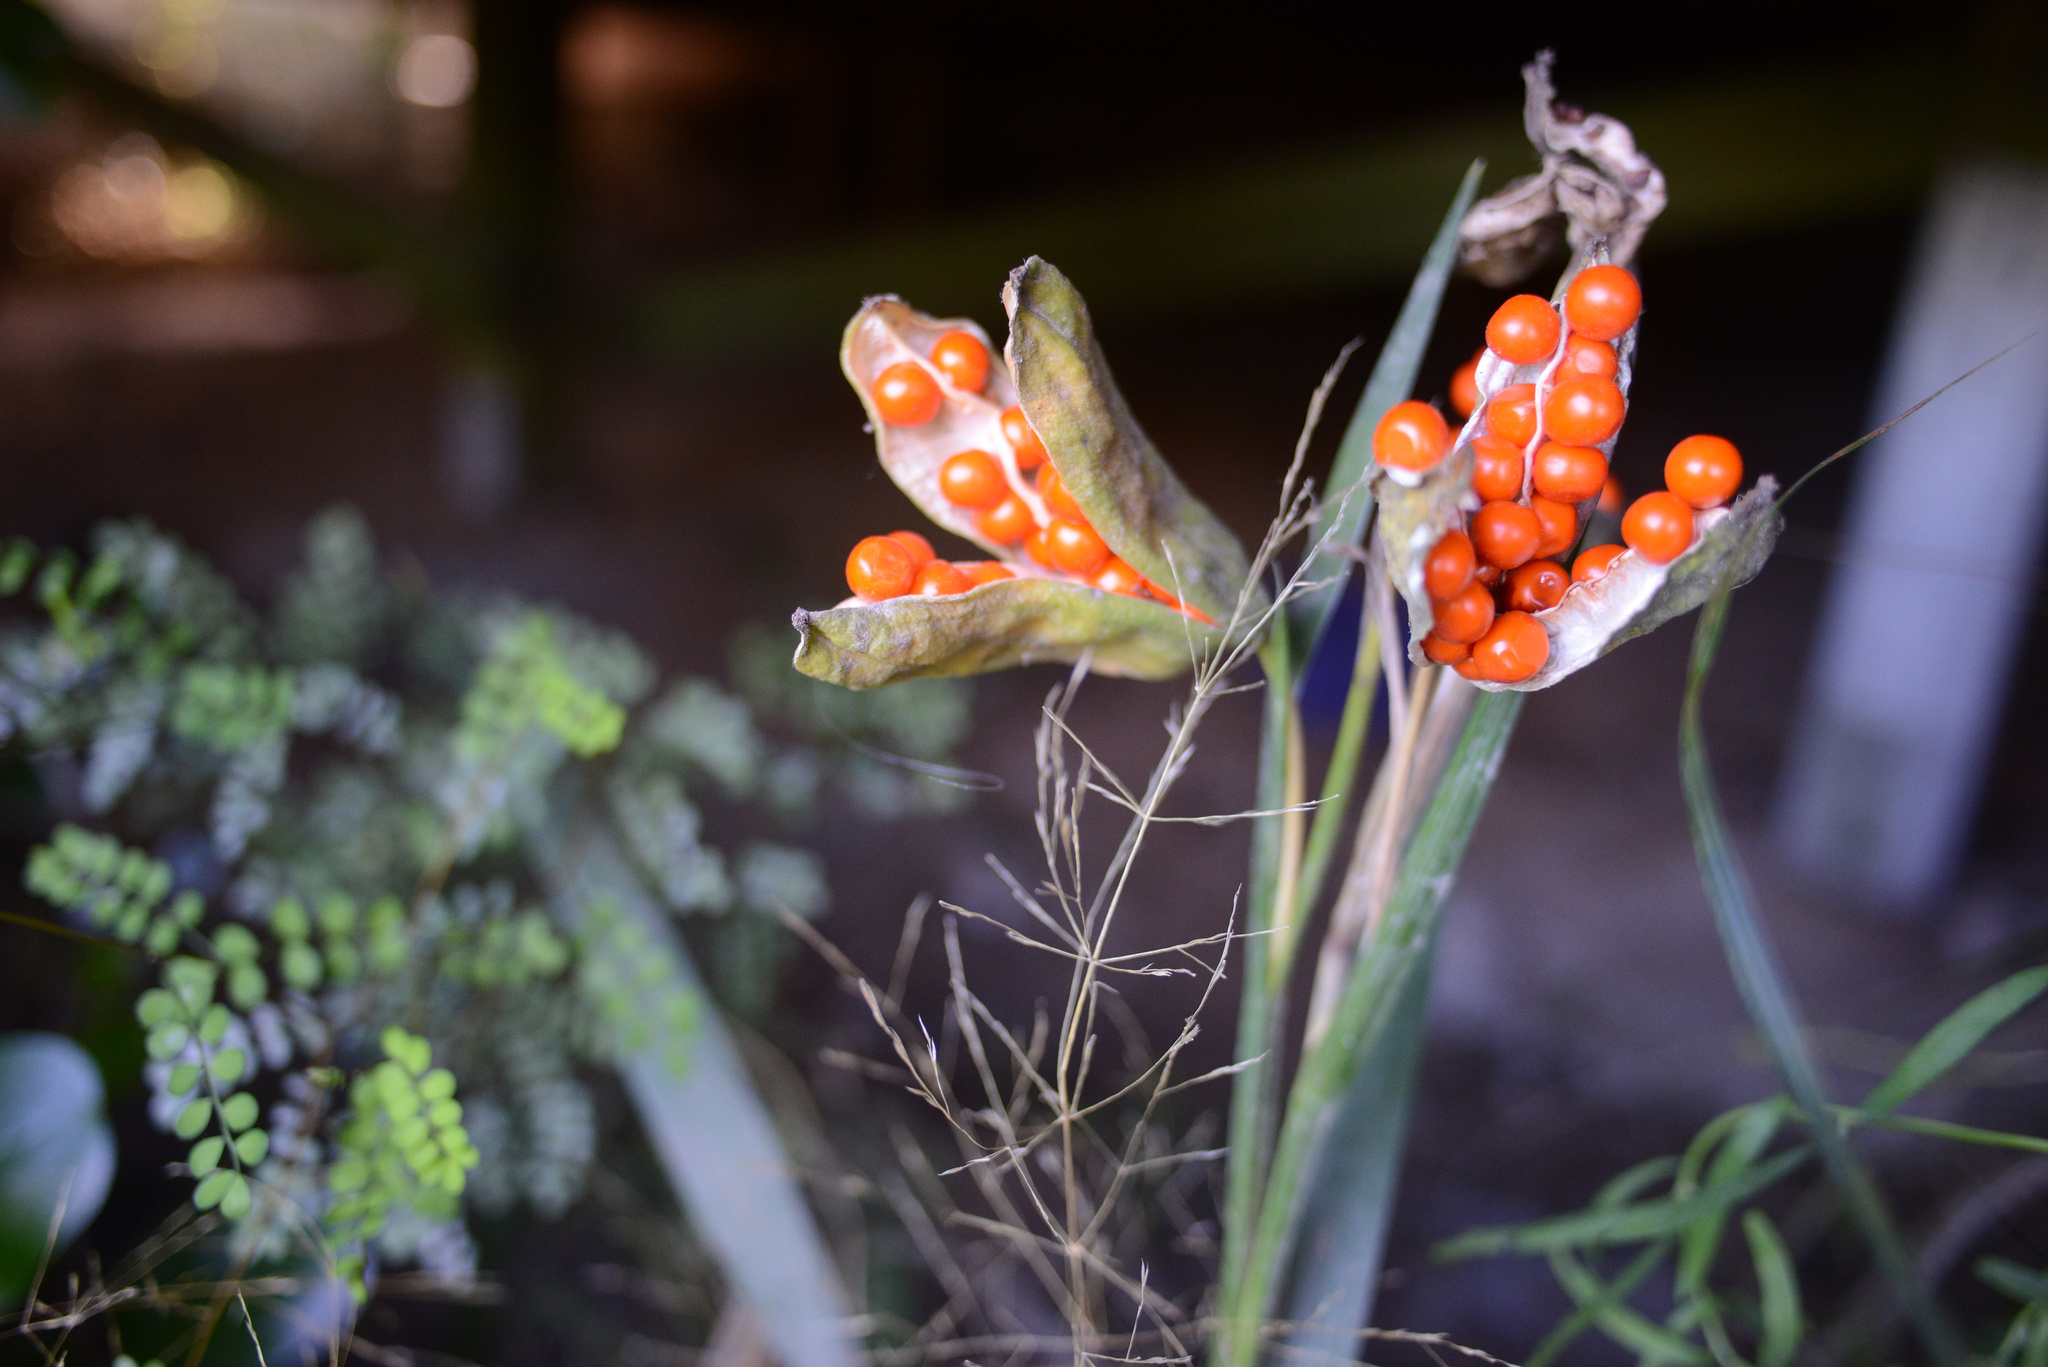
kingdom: Plantae
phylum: Tracheophyta
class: Liliopsida
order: Asparagales
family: Iridaceae
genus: Iris
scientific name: Iris foetidissima
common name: Stinking iris
